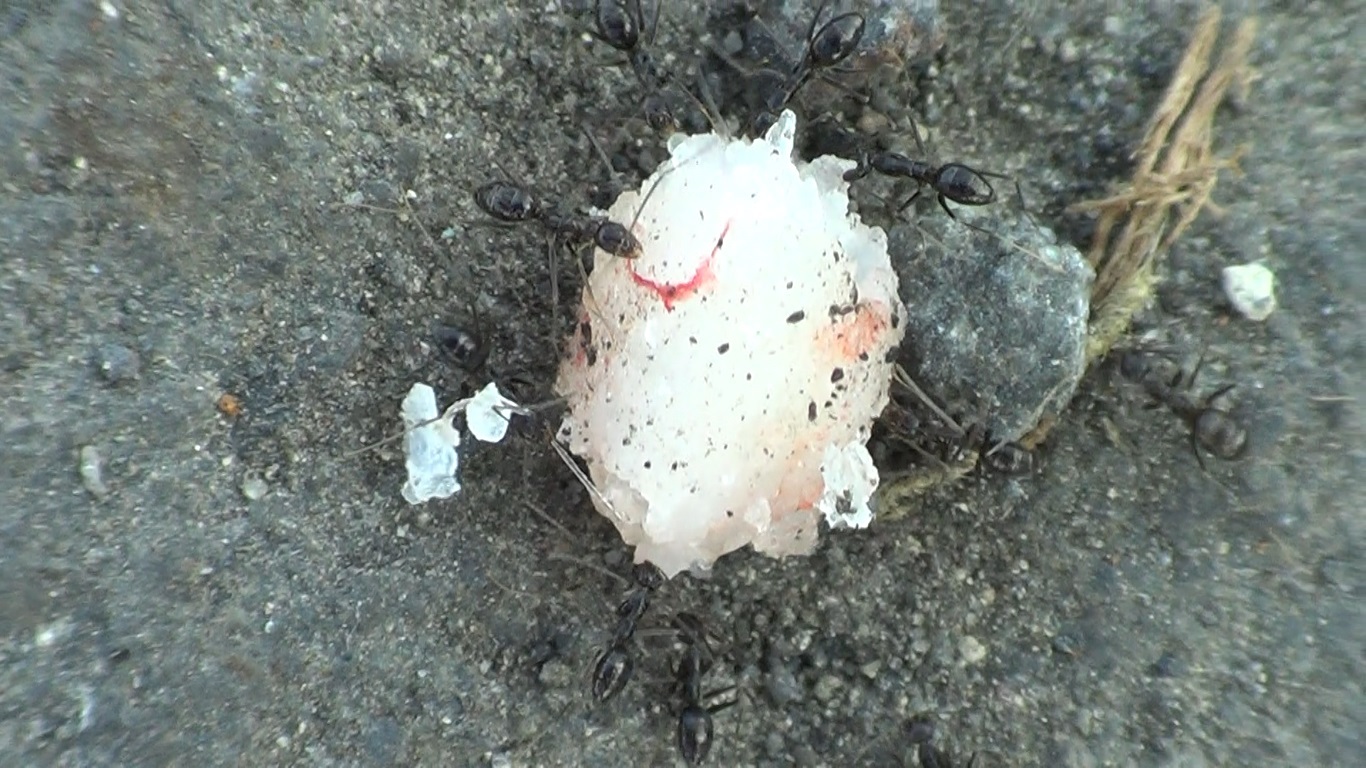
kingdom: Animalia
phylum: Arthropoda
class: Insecta
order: Hymenoptera
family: Formicidae
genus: Paratrechina
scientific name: Paratrechina longicornis
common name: Longhorned crazy ant
